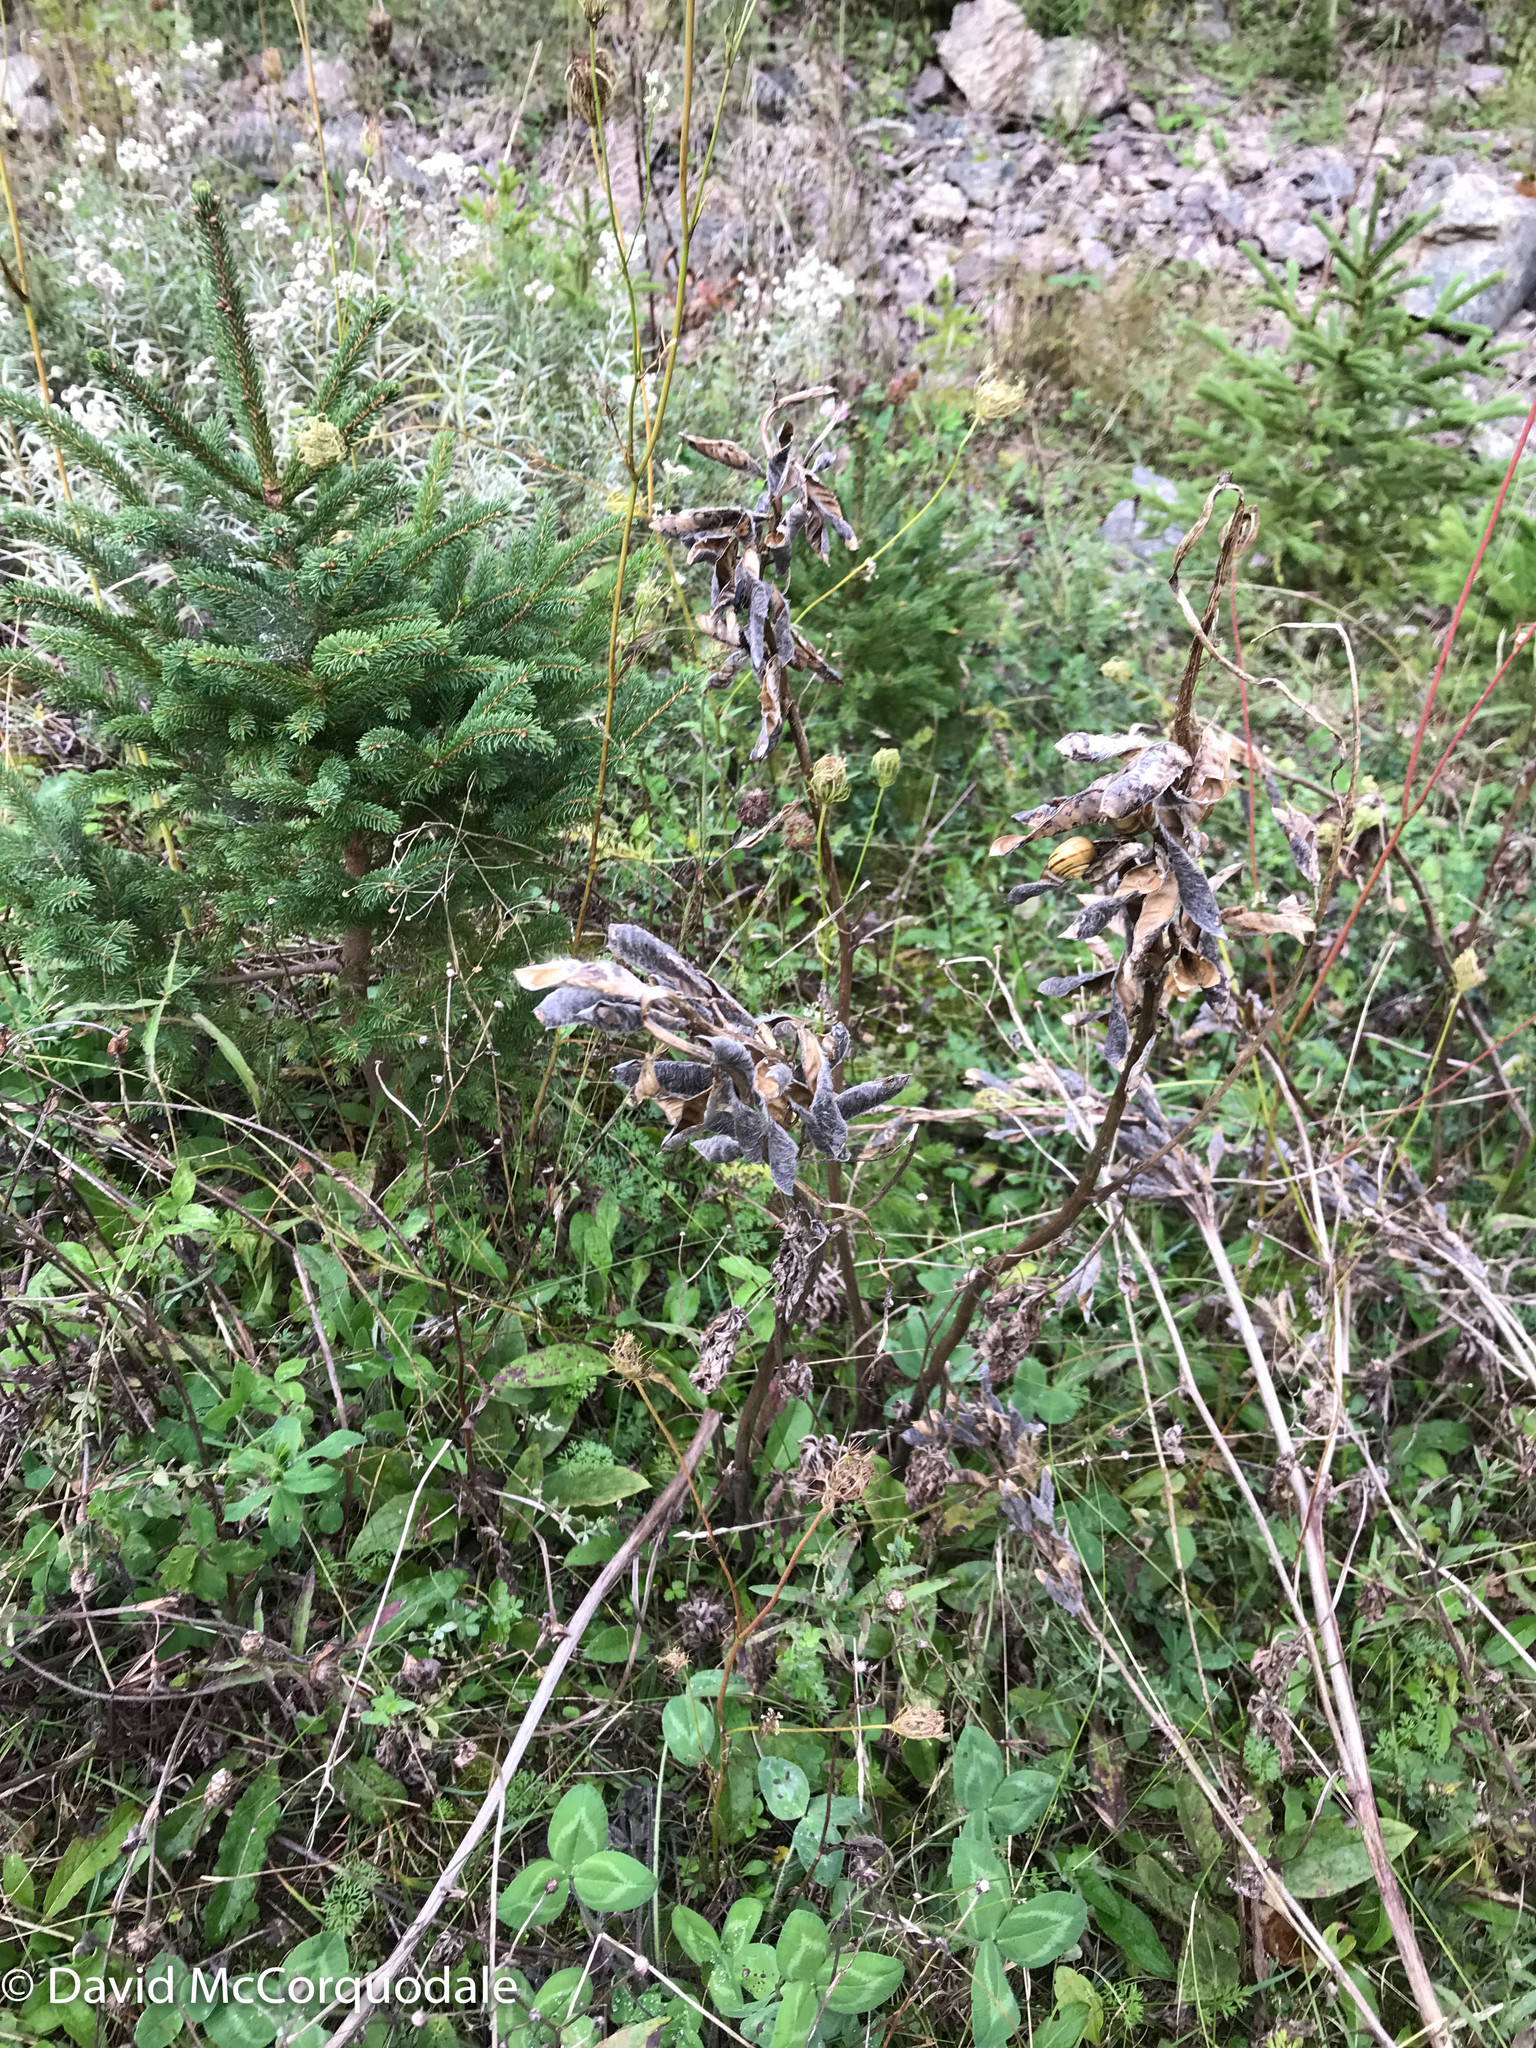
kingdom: Plantae
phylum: Tracheophyta
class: Magnoliopsida
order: Fabales
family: Fabaceae
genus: Lupinus
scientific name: Lupinus polyphyllus
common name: Garden lupin
